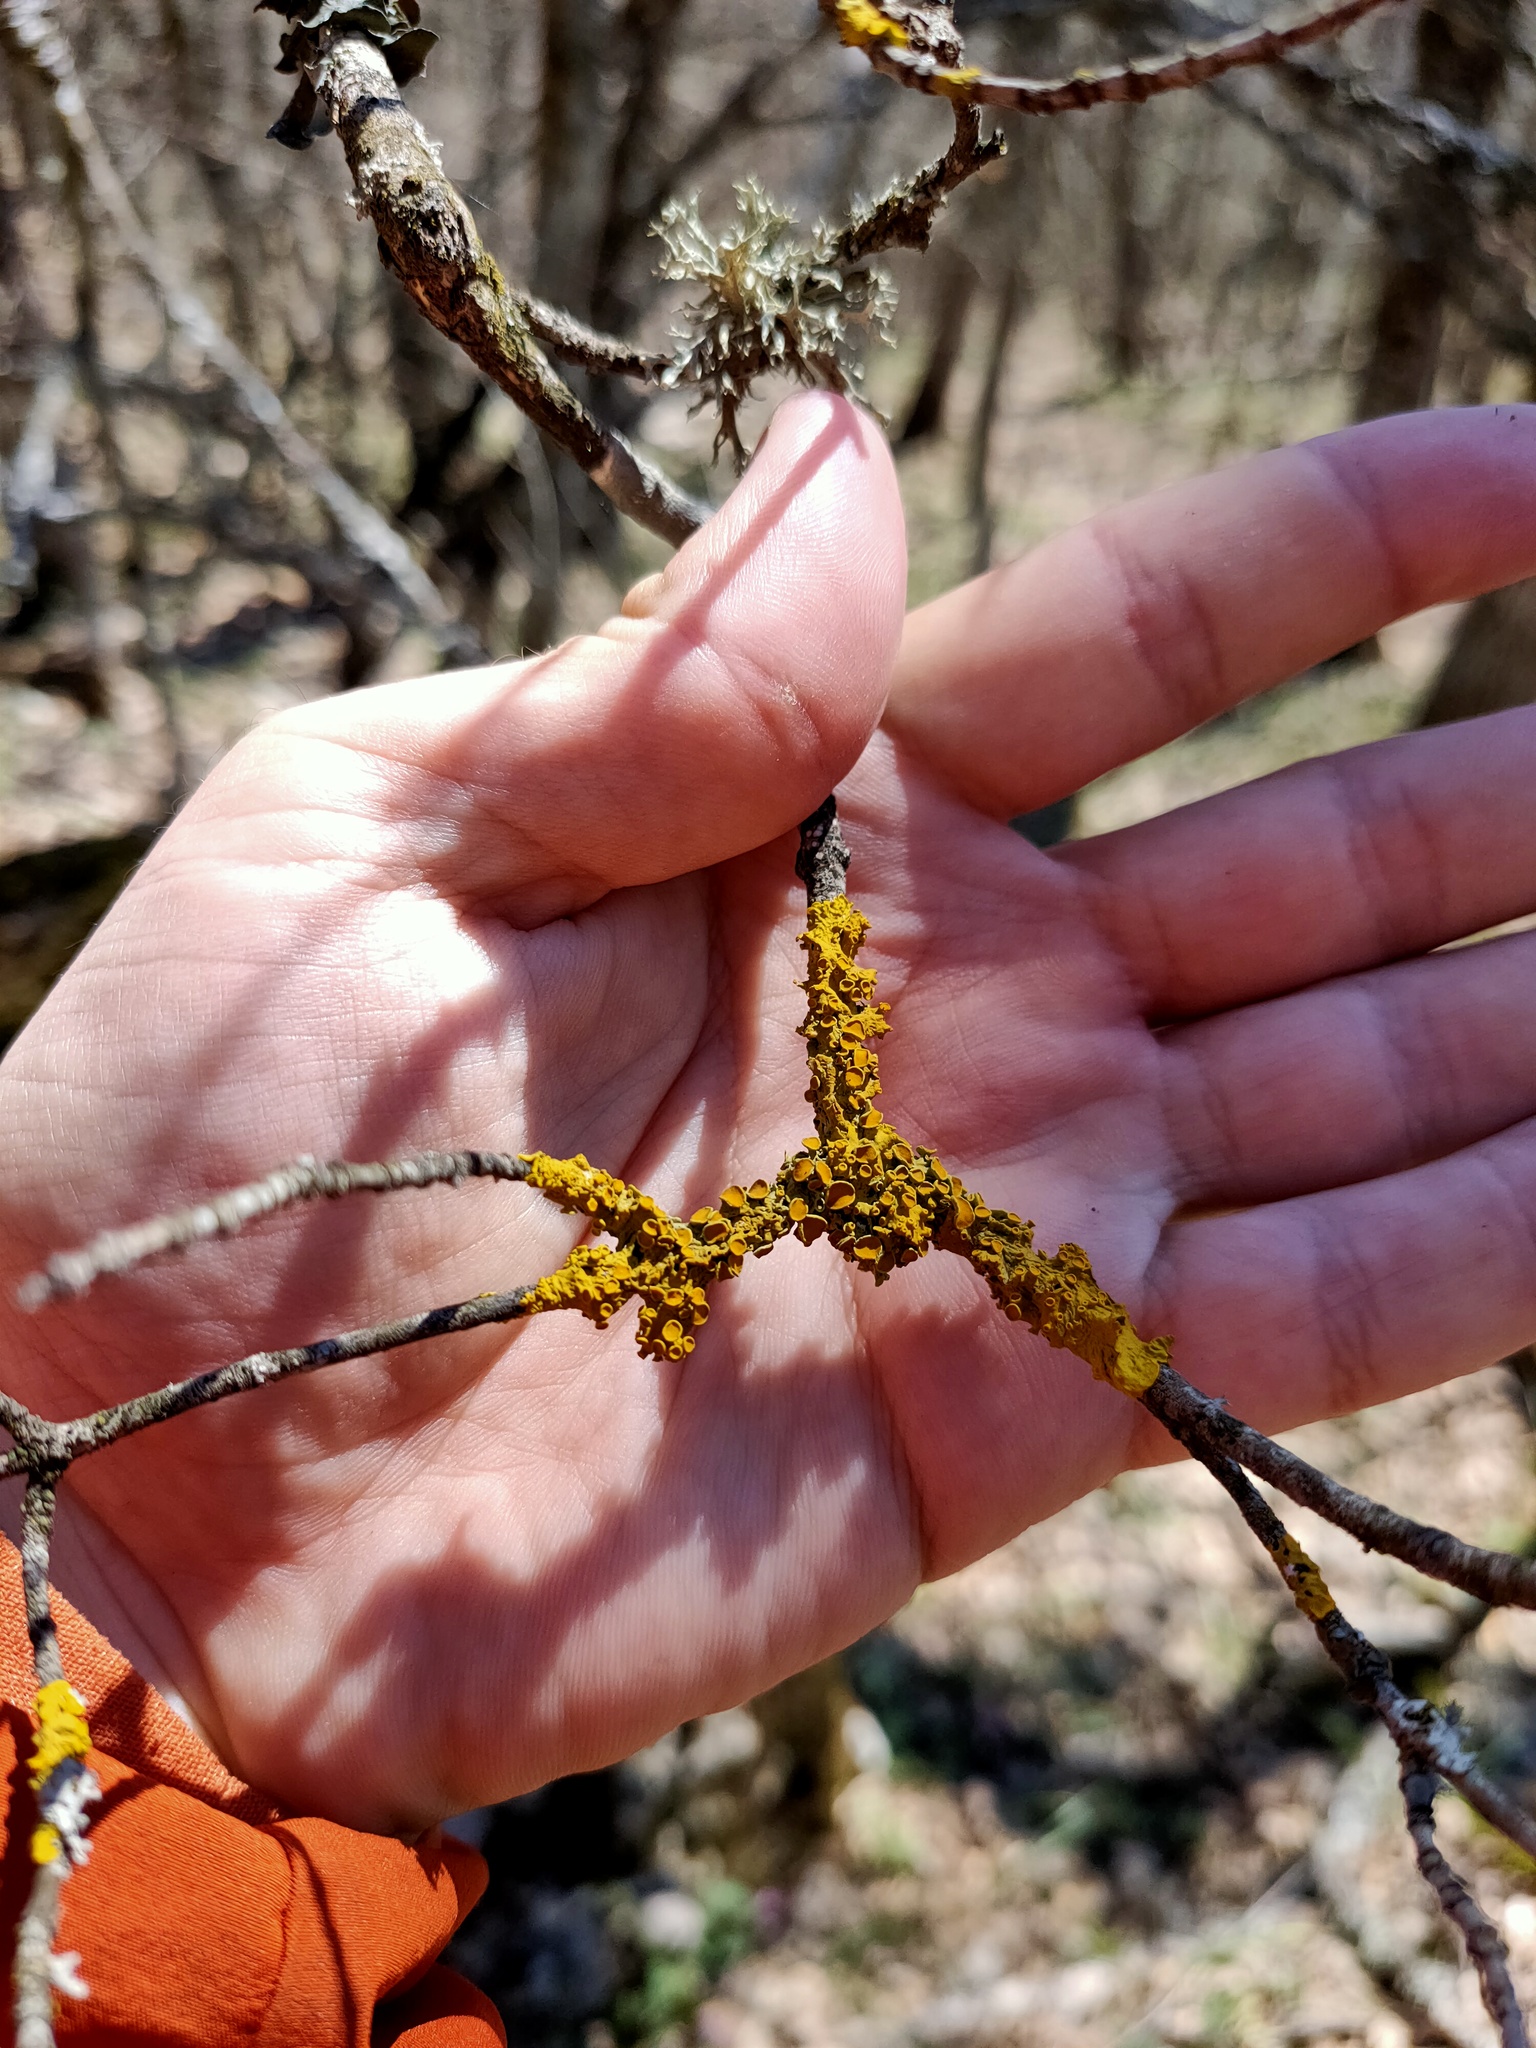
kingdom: Fungi
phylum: Ascomycota
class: Lecanoromycetes
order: Teloschistales
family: Teloschistaceae
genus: Xanthoria
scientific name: Xanthoria parietina
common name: Common orange lichen
